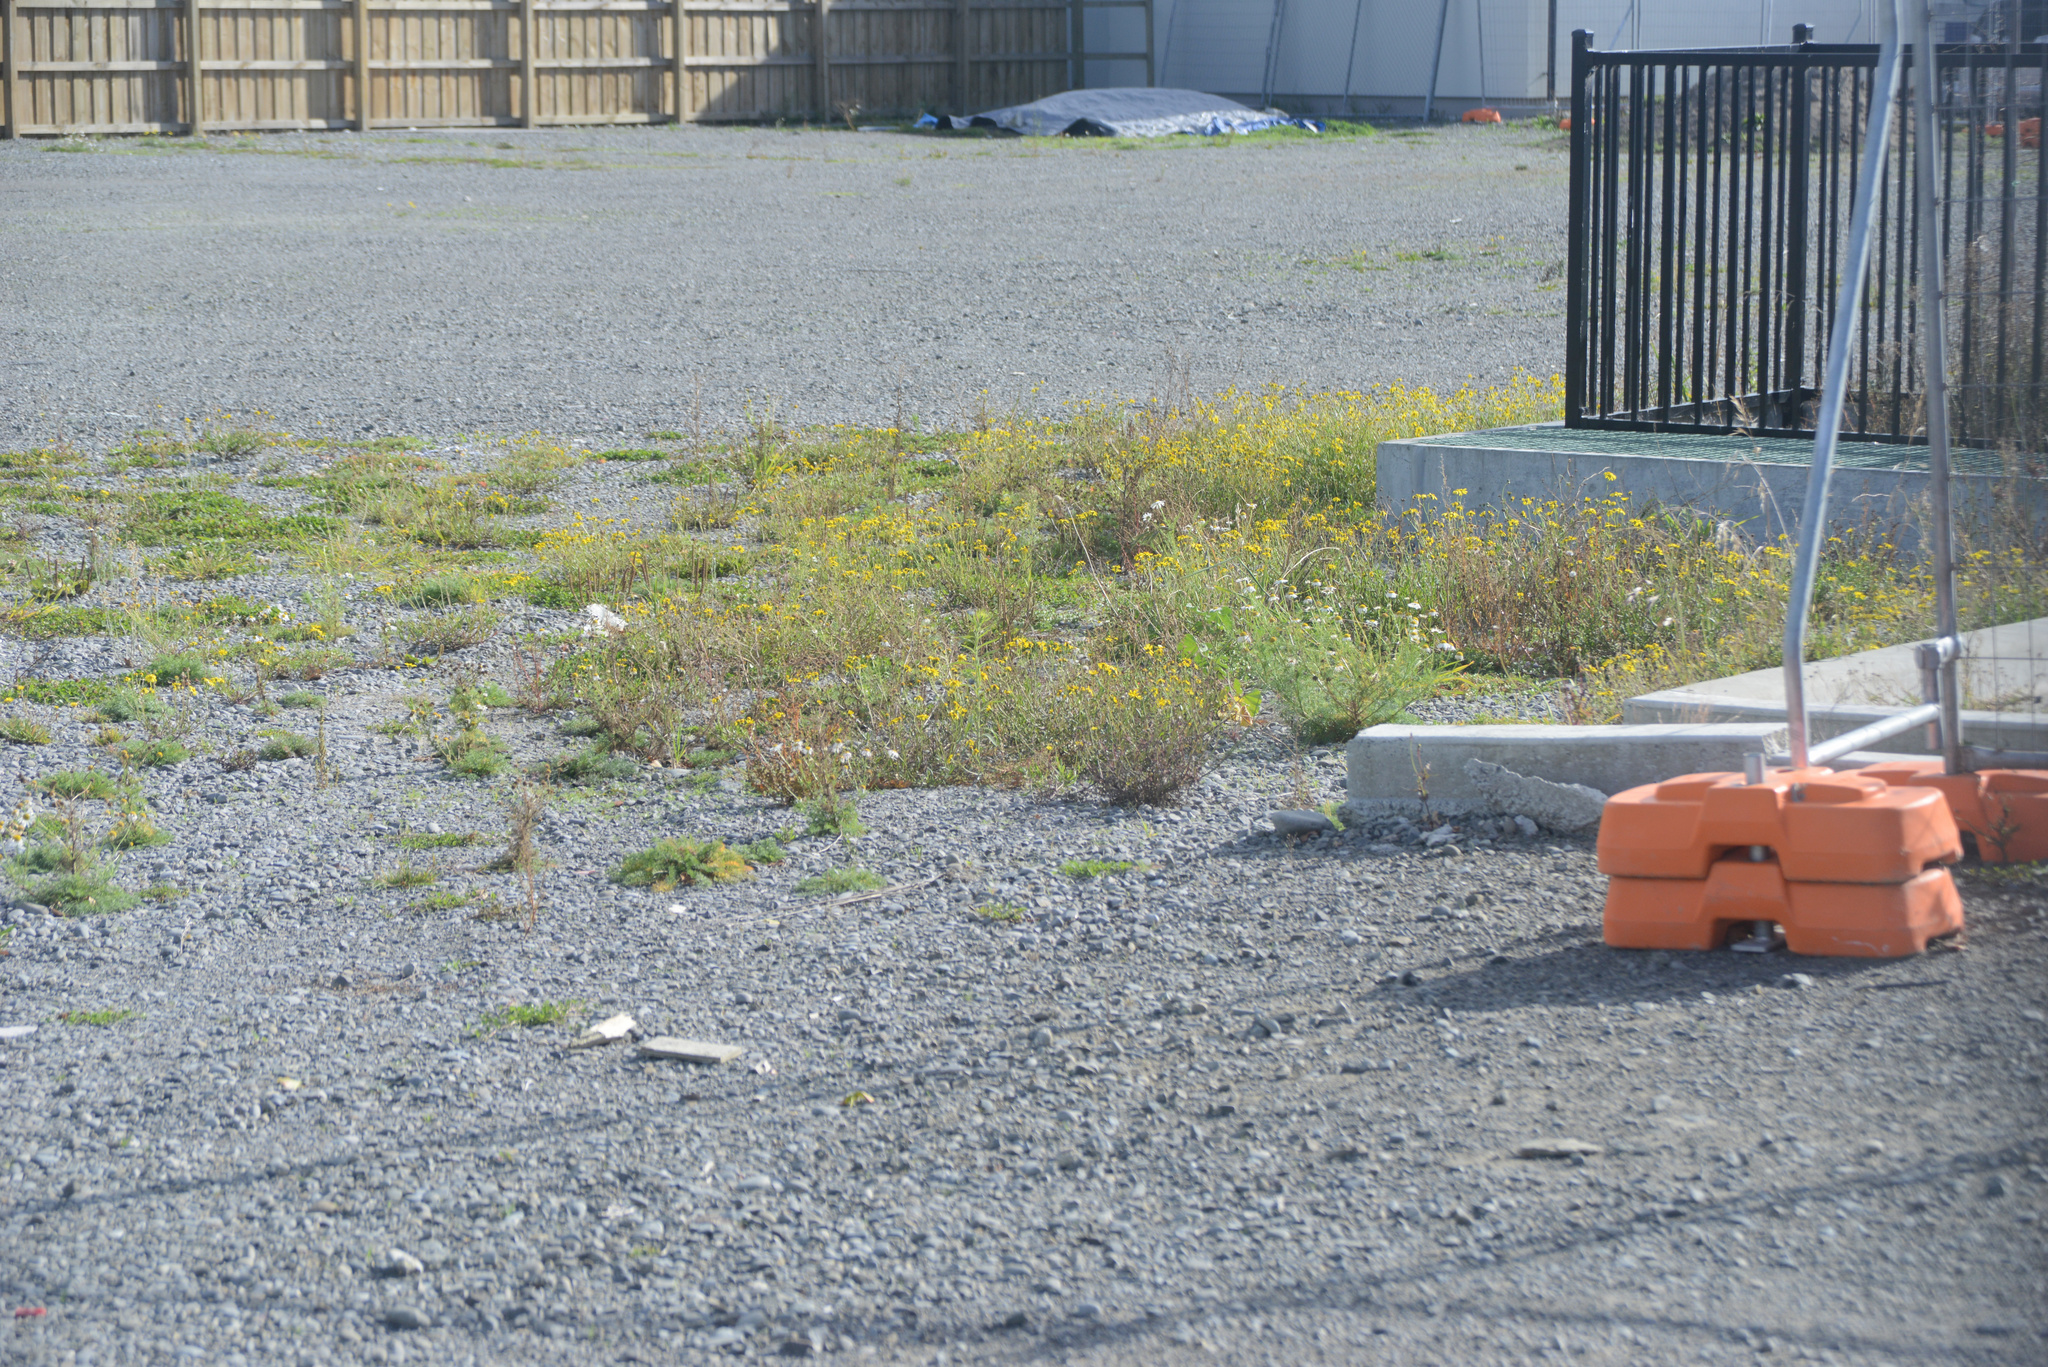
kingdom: Plantae
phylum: Tracheophyta
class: Magnoliopsida
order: Asterales
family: Asteraceae
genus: Senecio
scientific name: Senecio skirrhodon
